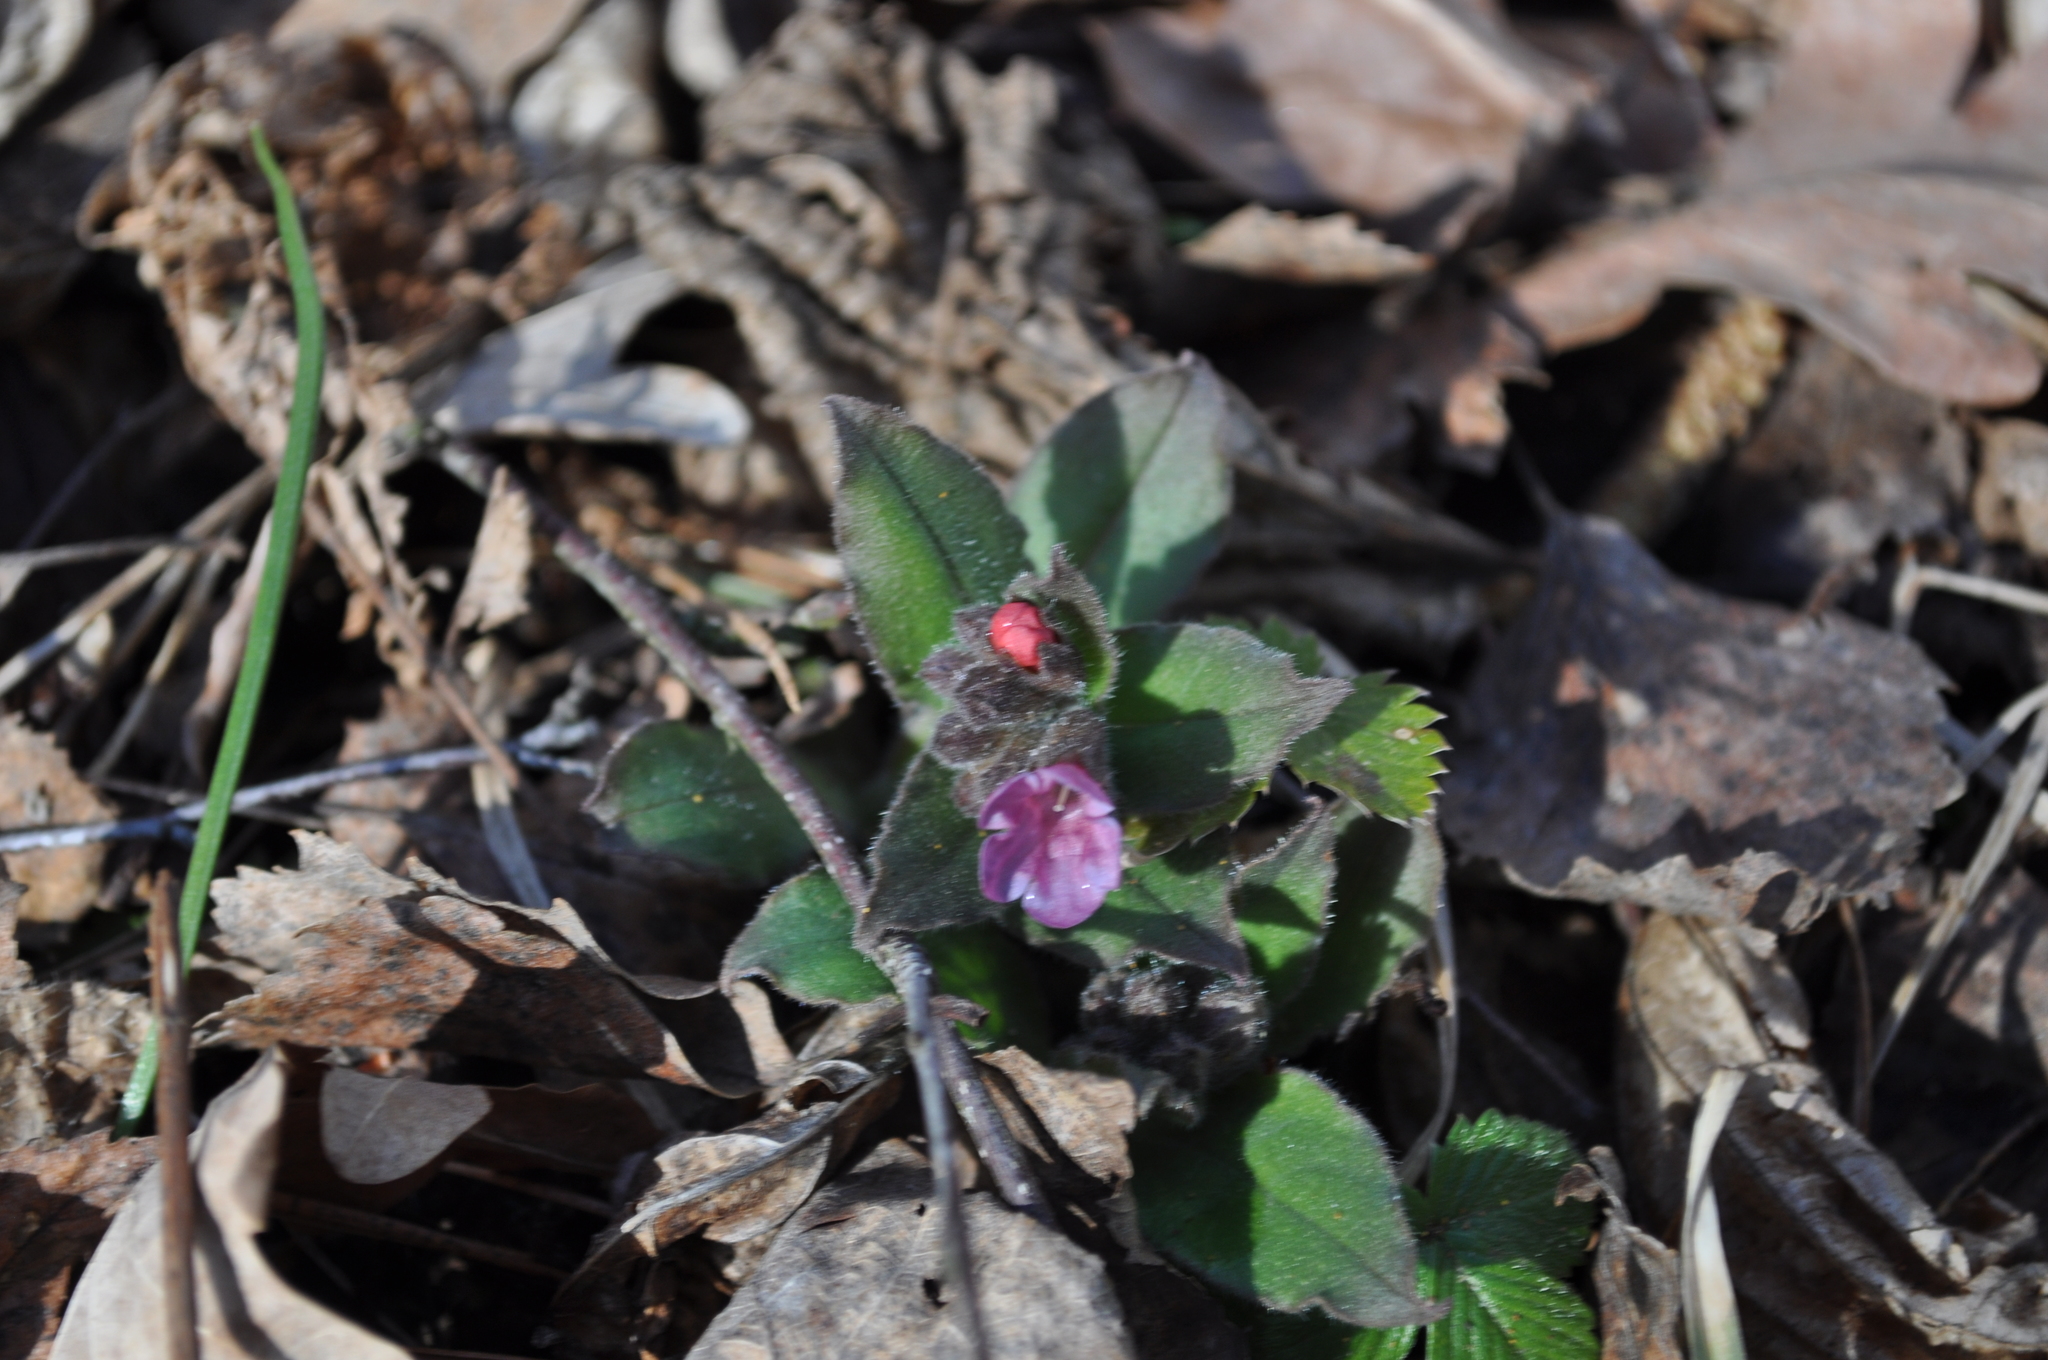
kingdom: Plantae
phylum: Tracheophyta
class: Magnoliopsida
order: Boraginales
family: Boraginaceae
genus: Pulmonaria
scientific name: Pulmonaria obscura
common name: Suffolk lungwort
